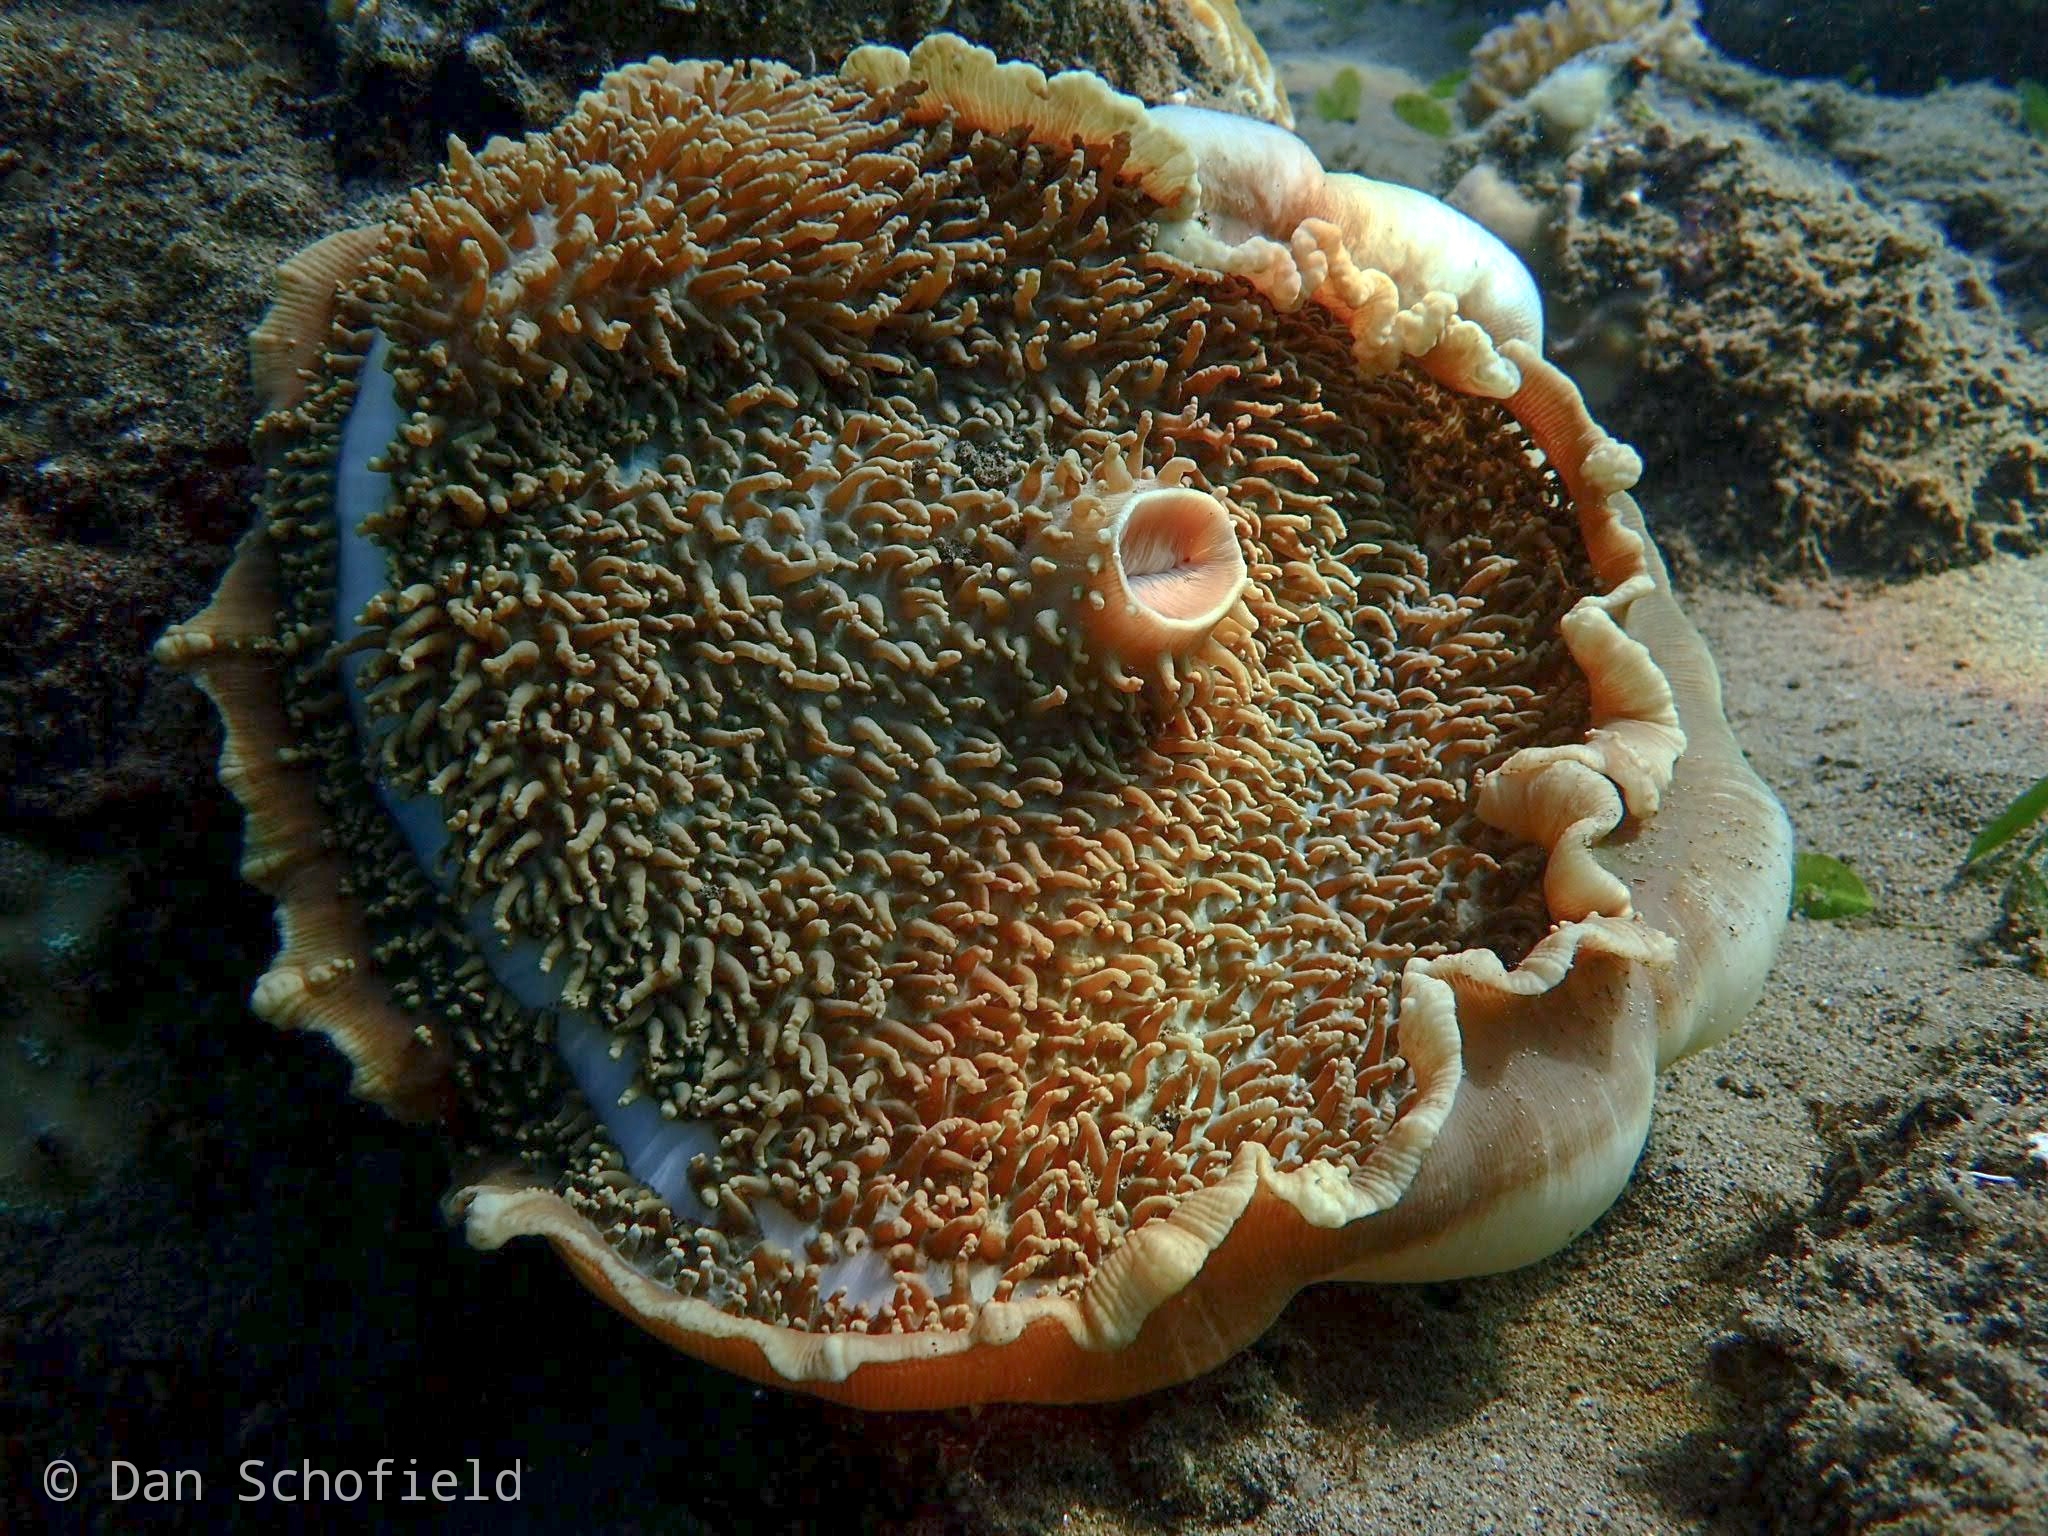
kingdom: Animalia
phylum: Cnidaria
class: Anthozoa
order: Corallimorpharia
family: Discosomidae
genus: Amplexidiscus
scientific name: Amplexidiscus fenestrafer
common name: Elephant ear anemone
